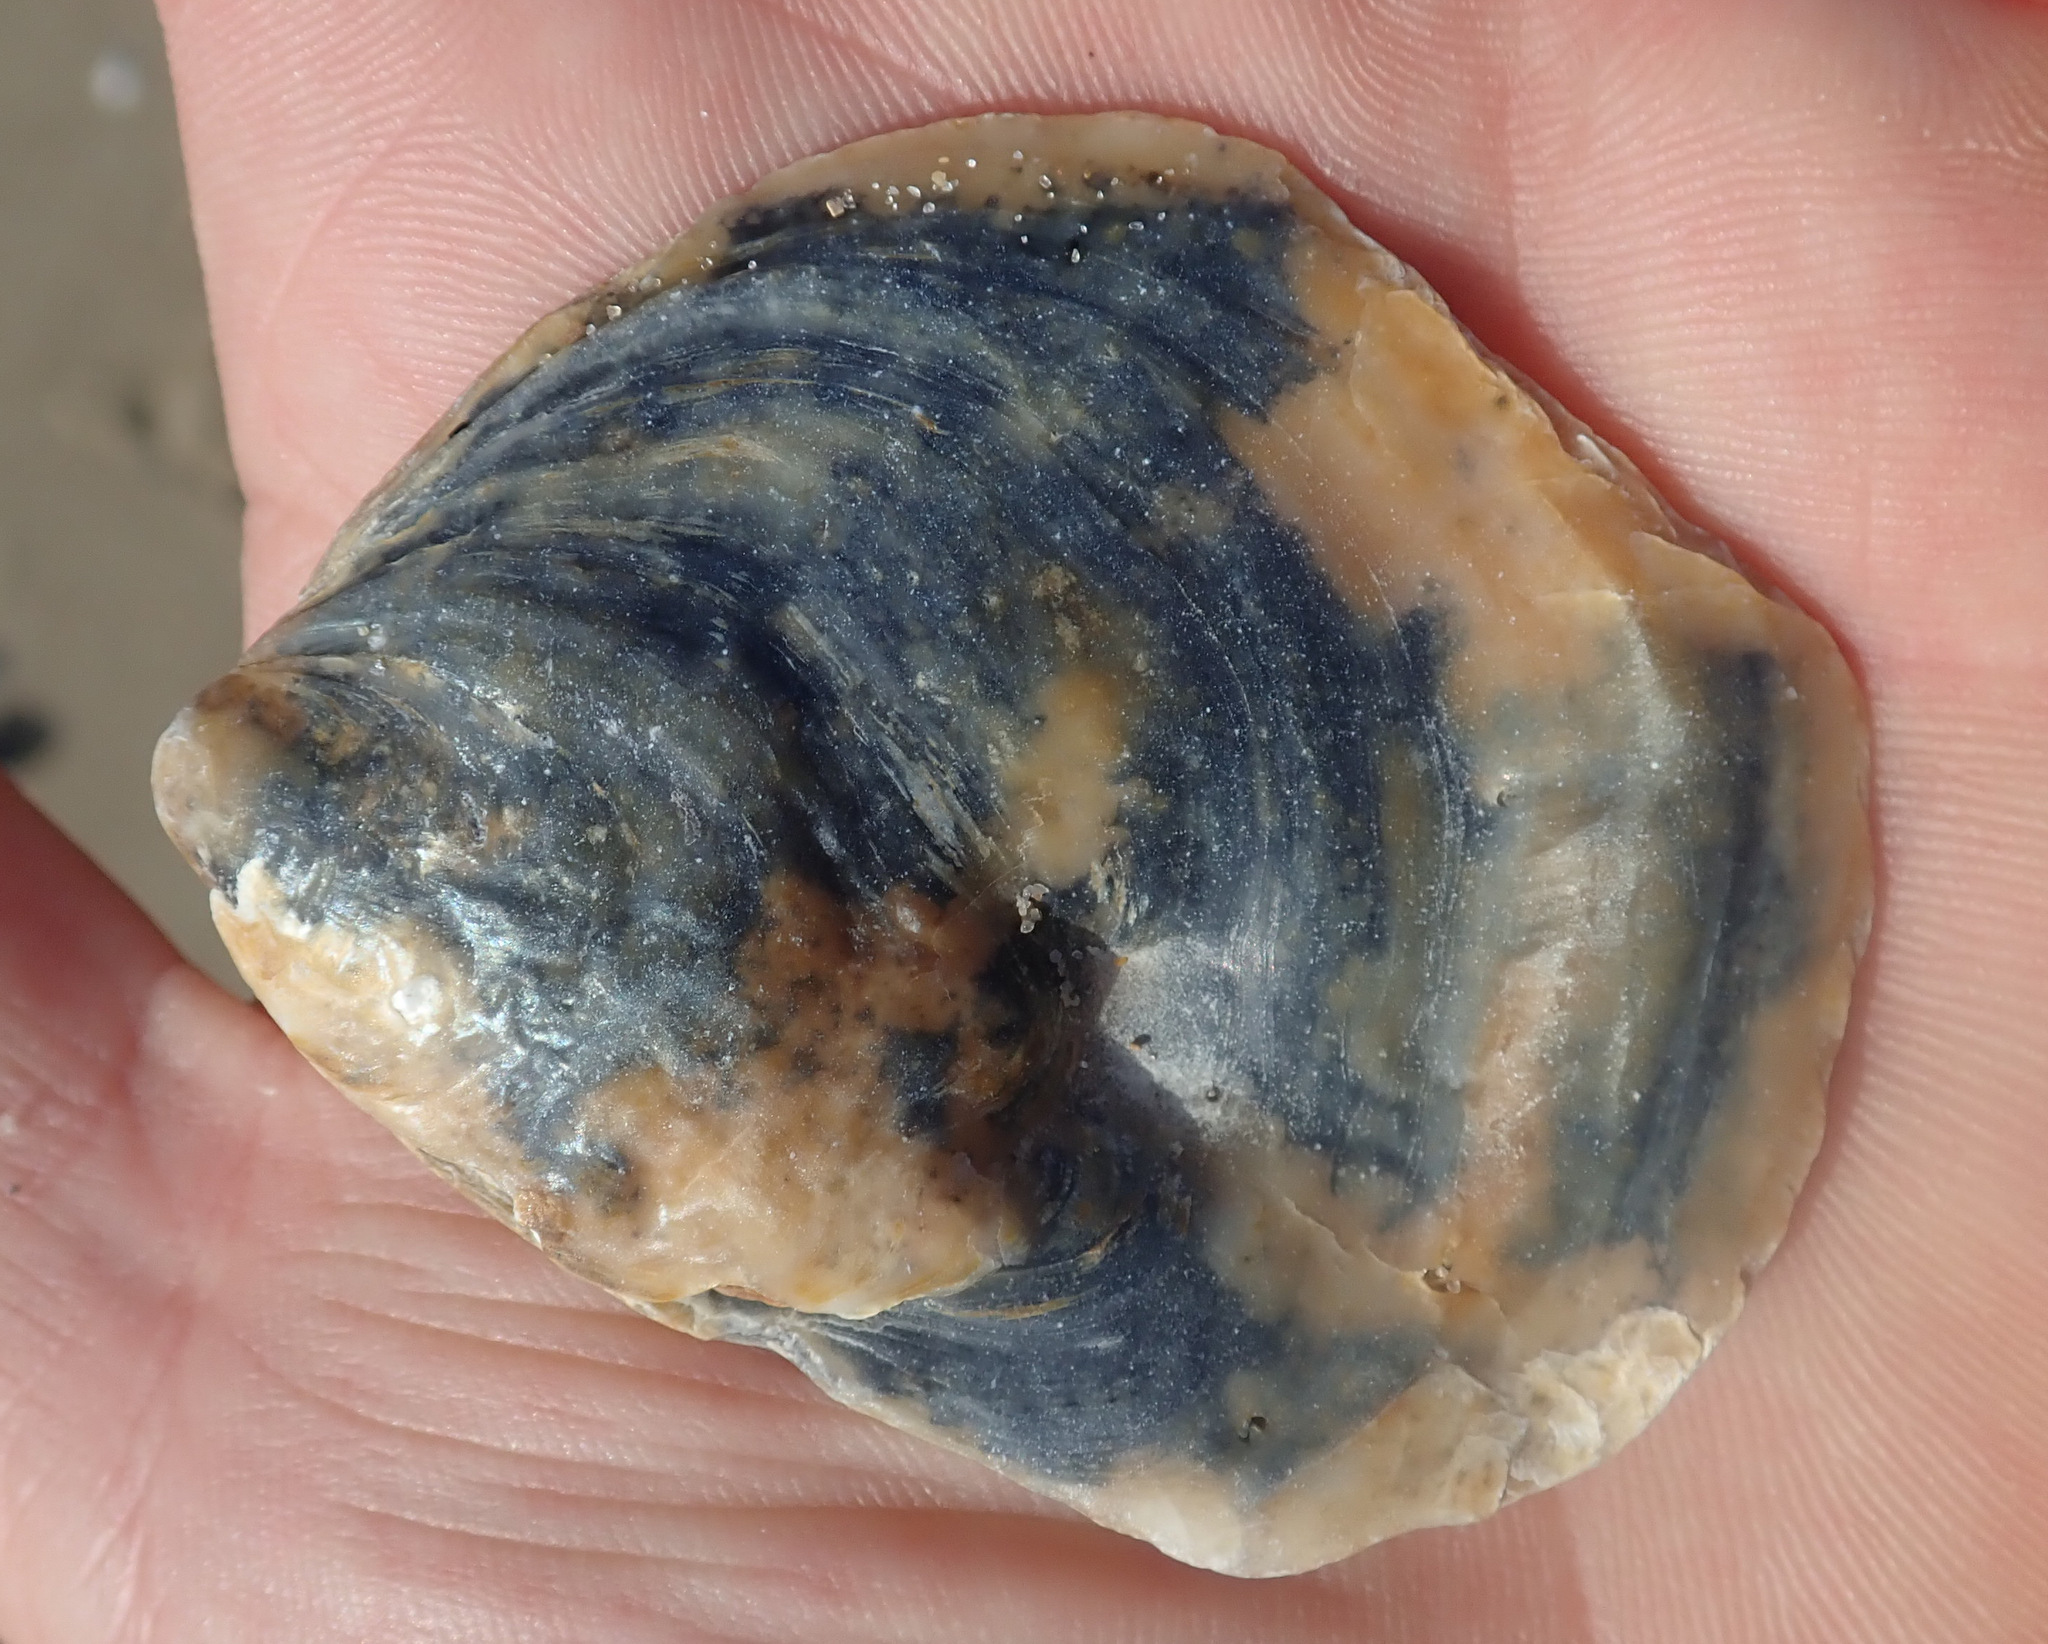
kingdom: Animalia
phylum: Mollusca
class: Bivalvia
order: Ostreida
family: Ostreidae
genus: Ostrea
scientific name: Ostrea edulis
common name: Flat oyster
